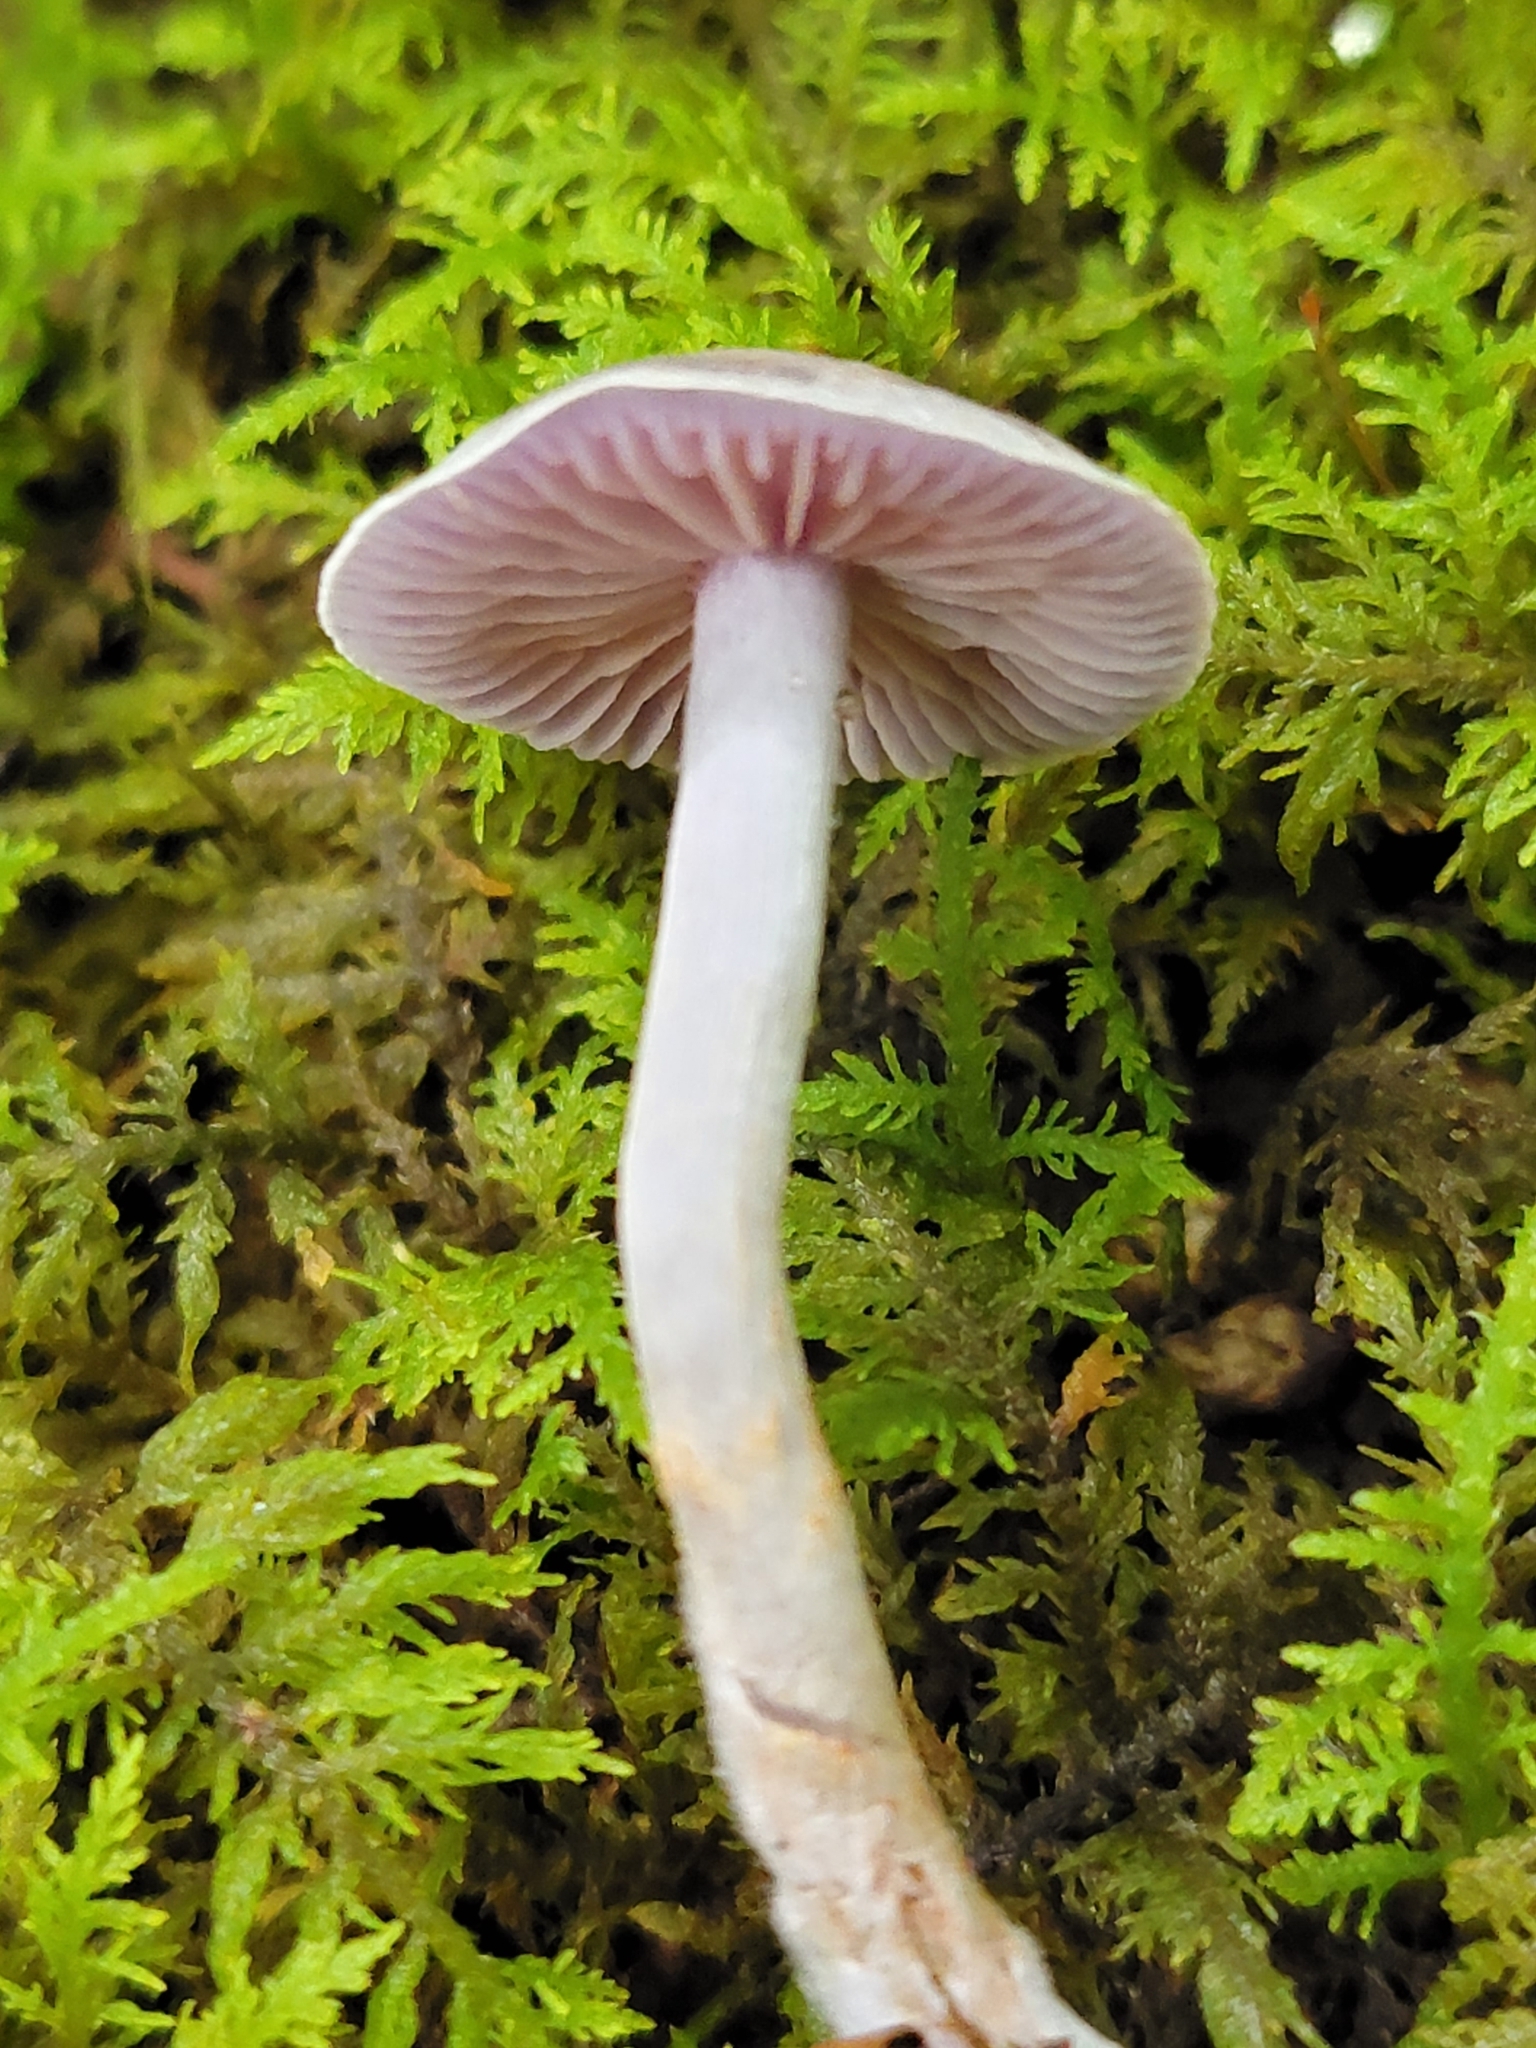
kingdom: Fungi
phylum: Basidiomycota
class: Agaricomycetes
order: Agaricales
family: Marasmiaceae
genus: Baeospora
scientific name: Baeospora myriadophylla
